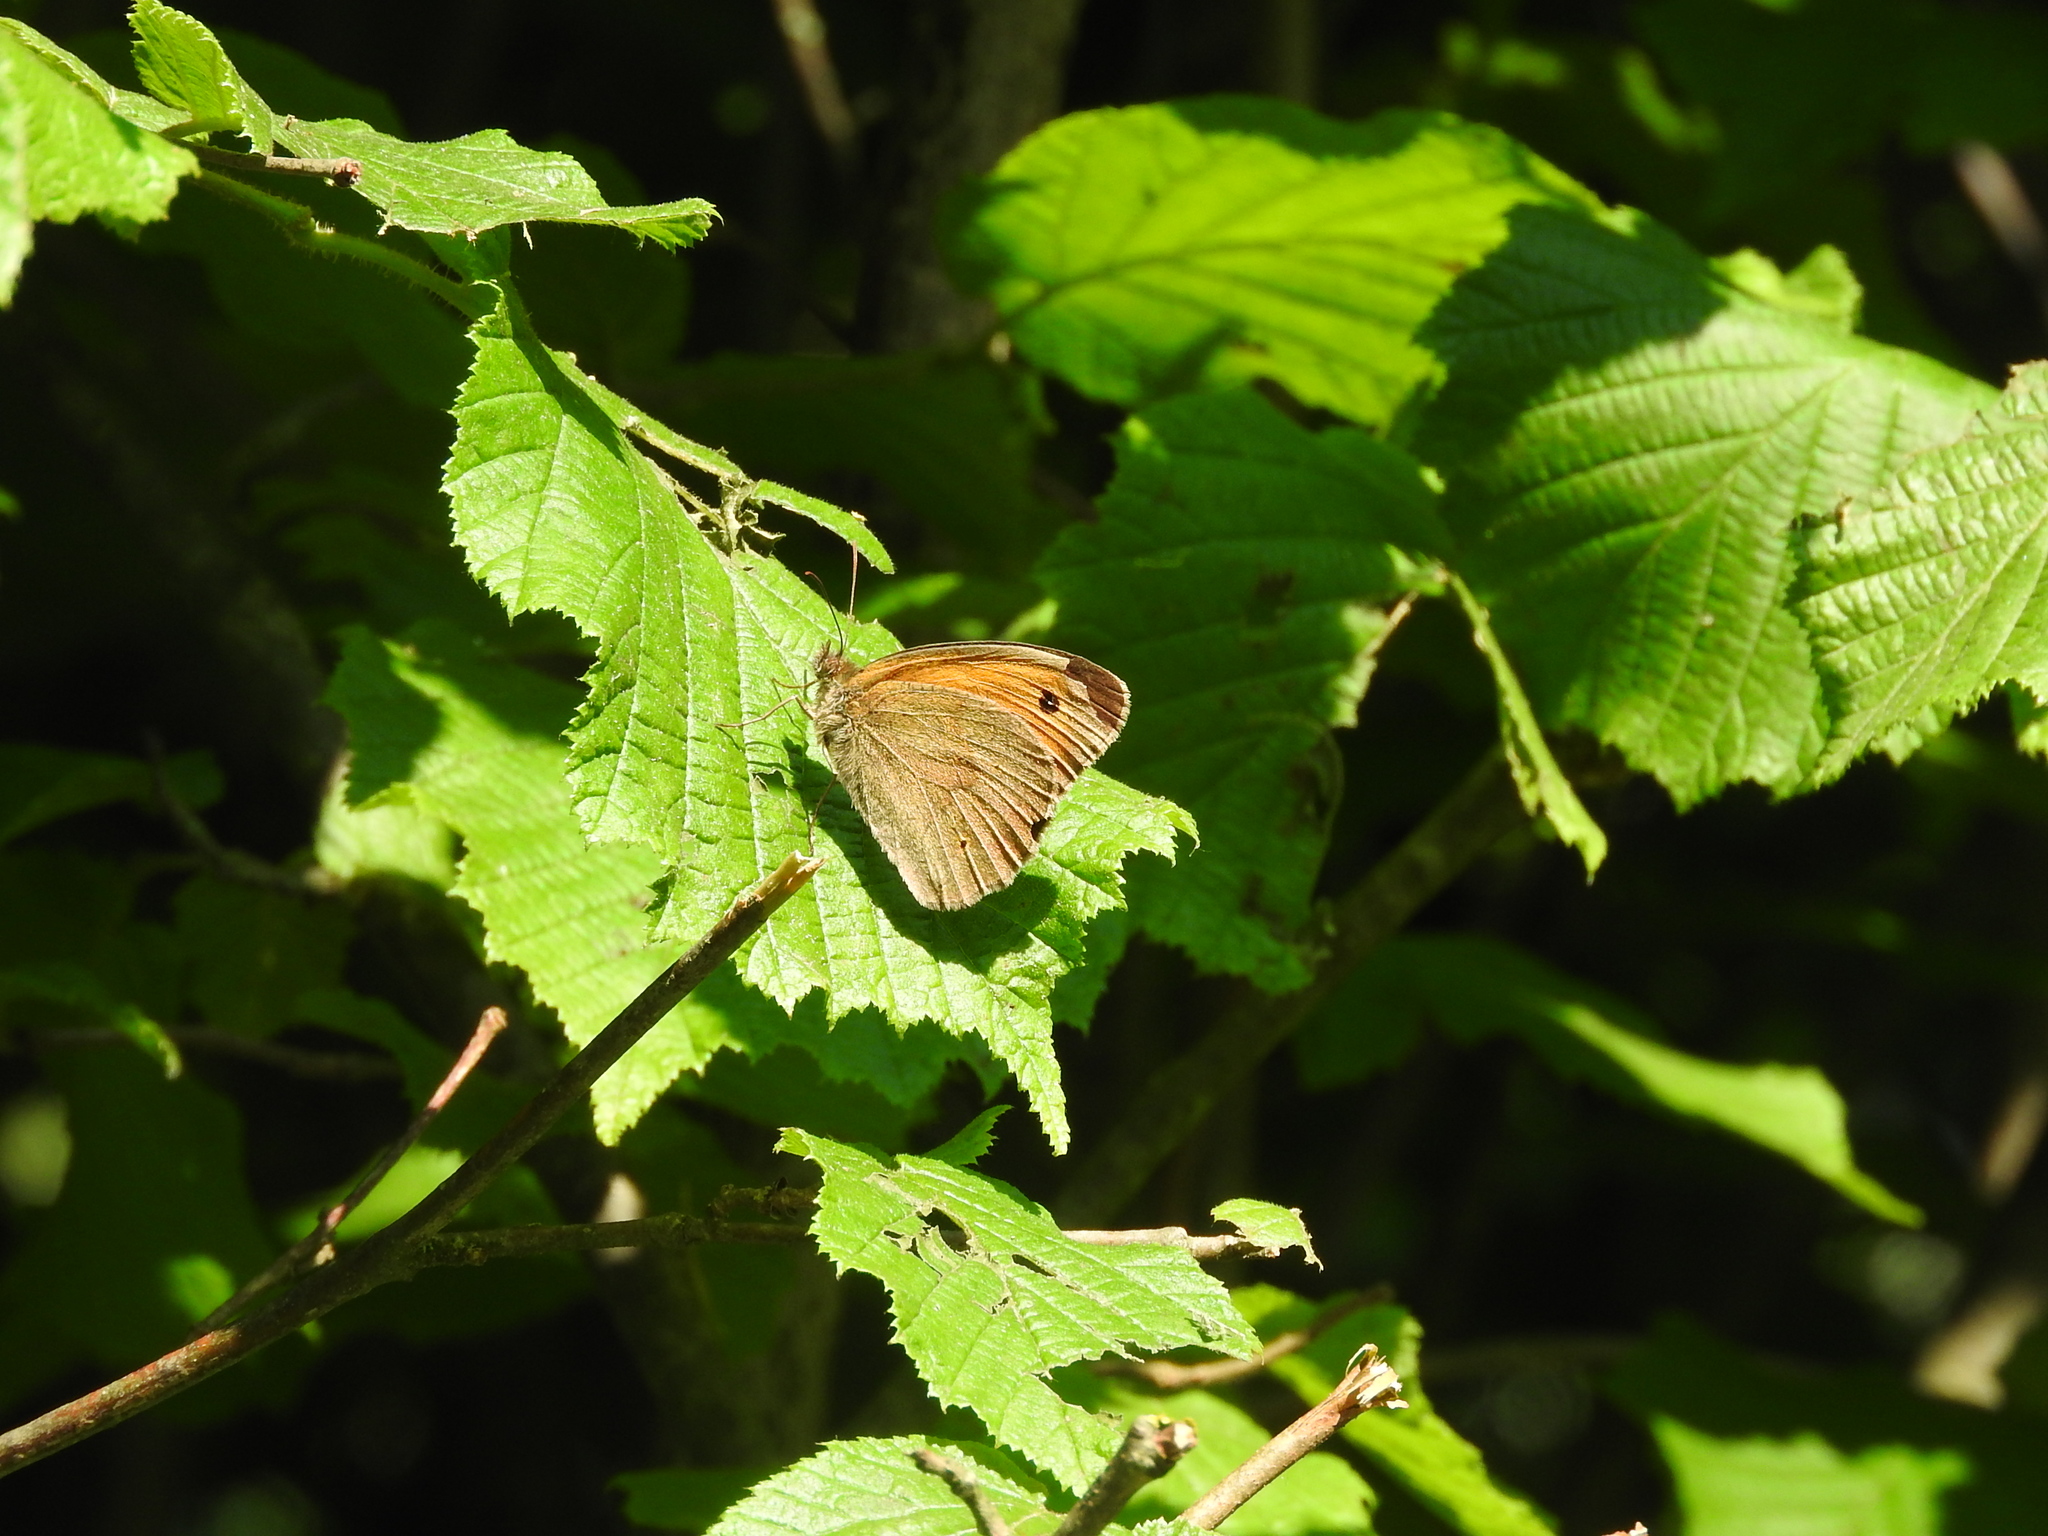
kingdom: Animalia
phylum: Arthropoda
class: Insecta
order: Lepidoptera
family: Nymphalidae
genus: Maniola
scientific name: Maniola jurtina
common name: Meadow brown
